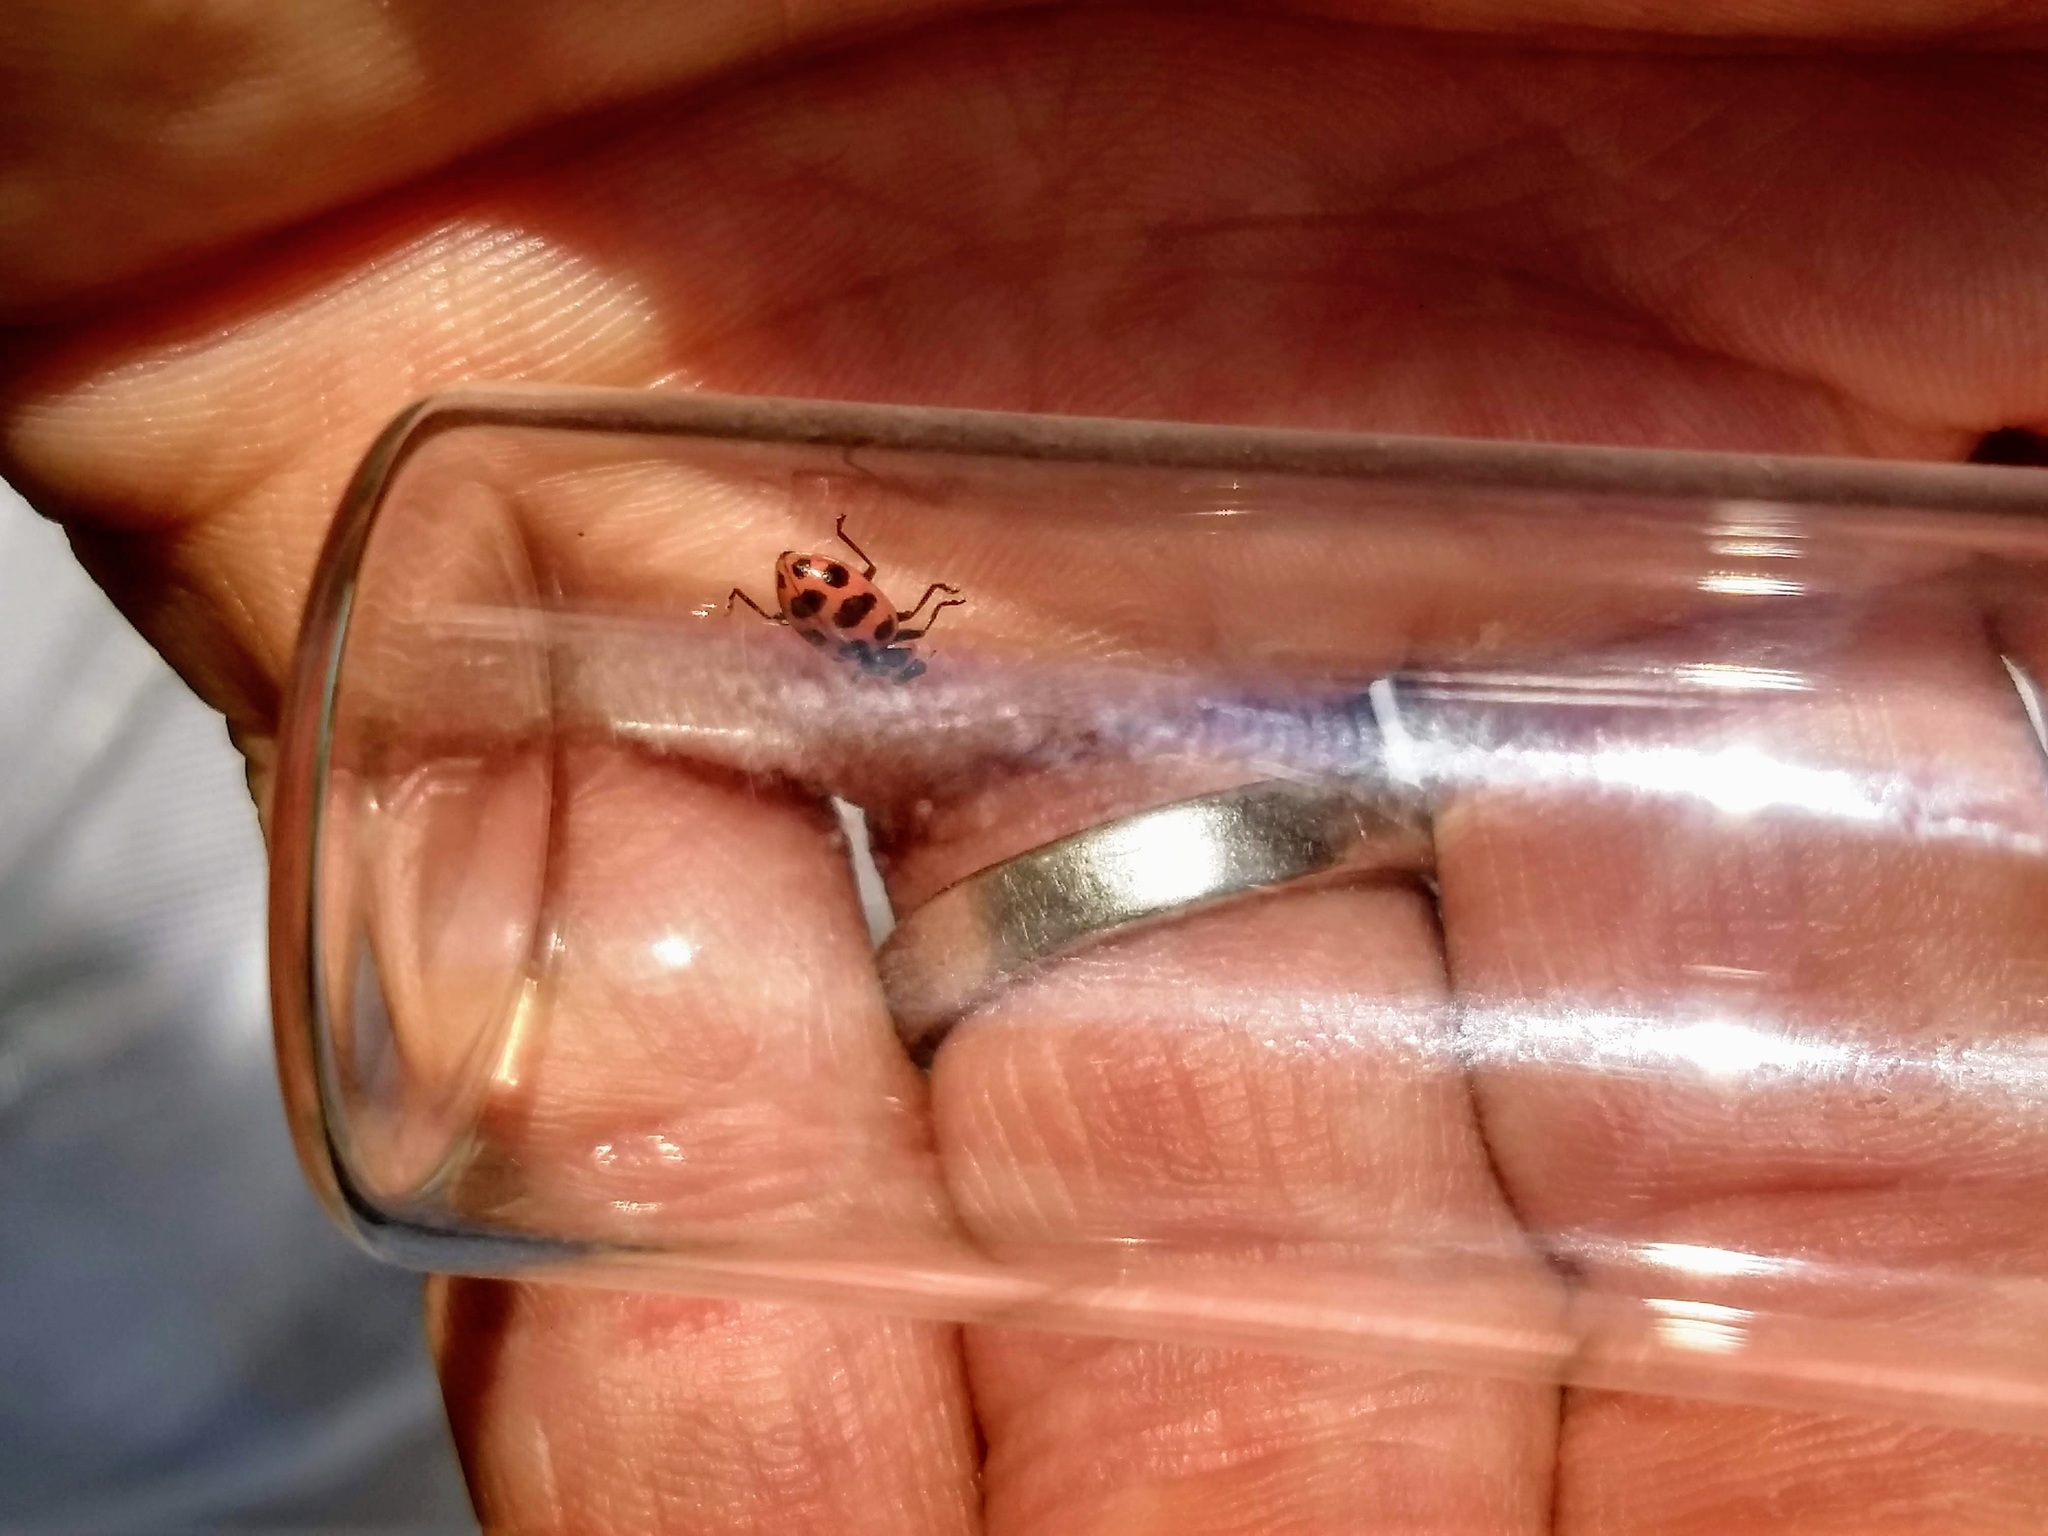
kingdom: Animalia
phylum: Arthropoda
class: Insecta
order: Coleoptera
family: Coccinellidae
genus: Coleomegilla
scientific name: Coleomegilla maculata
